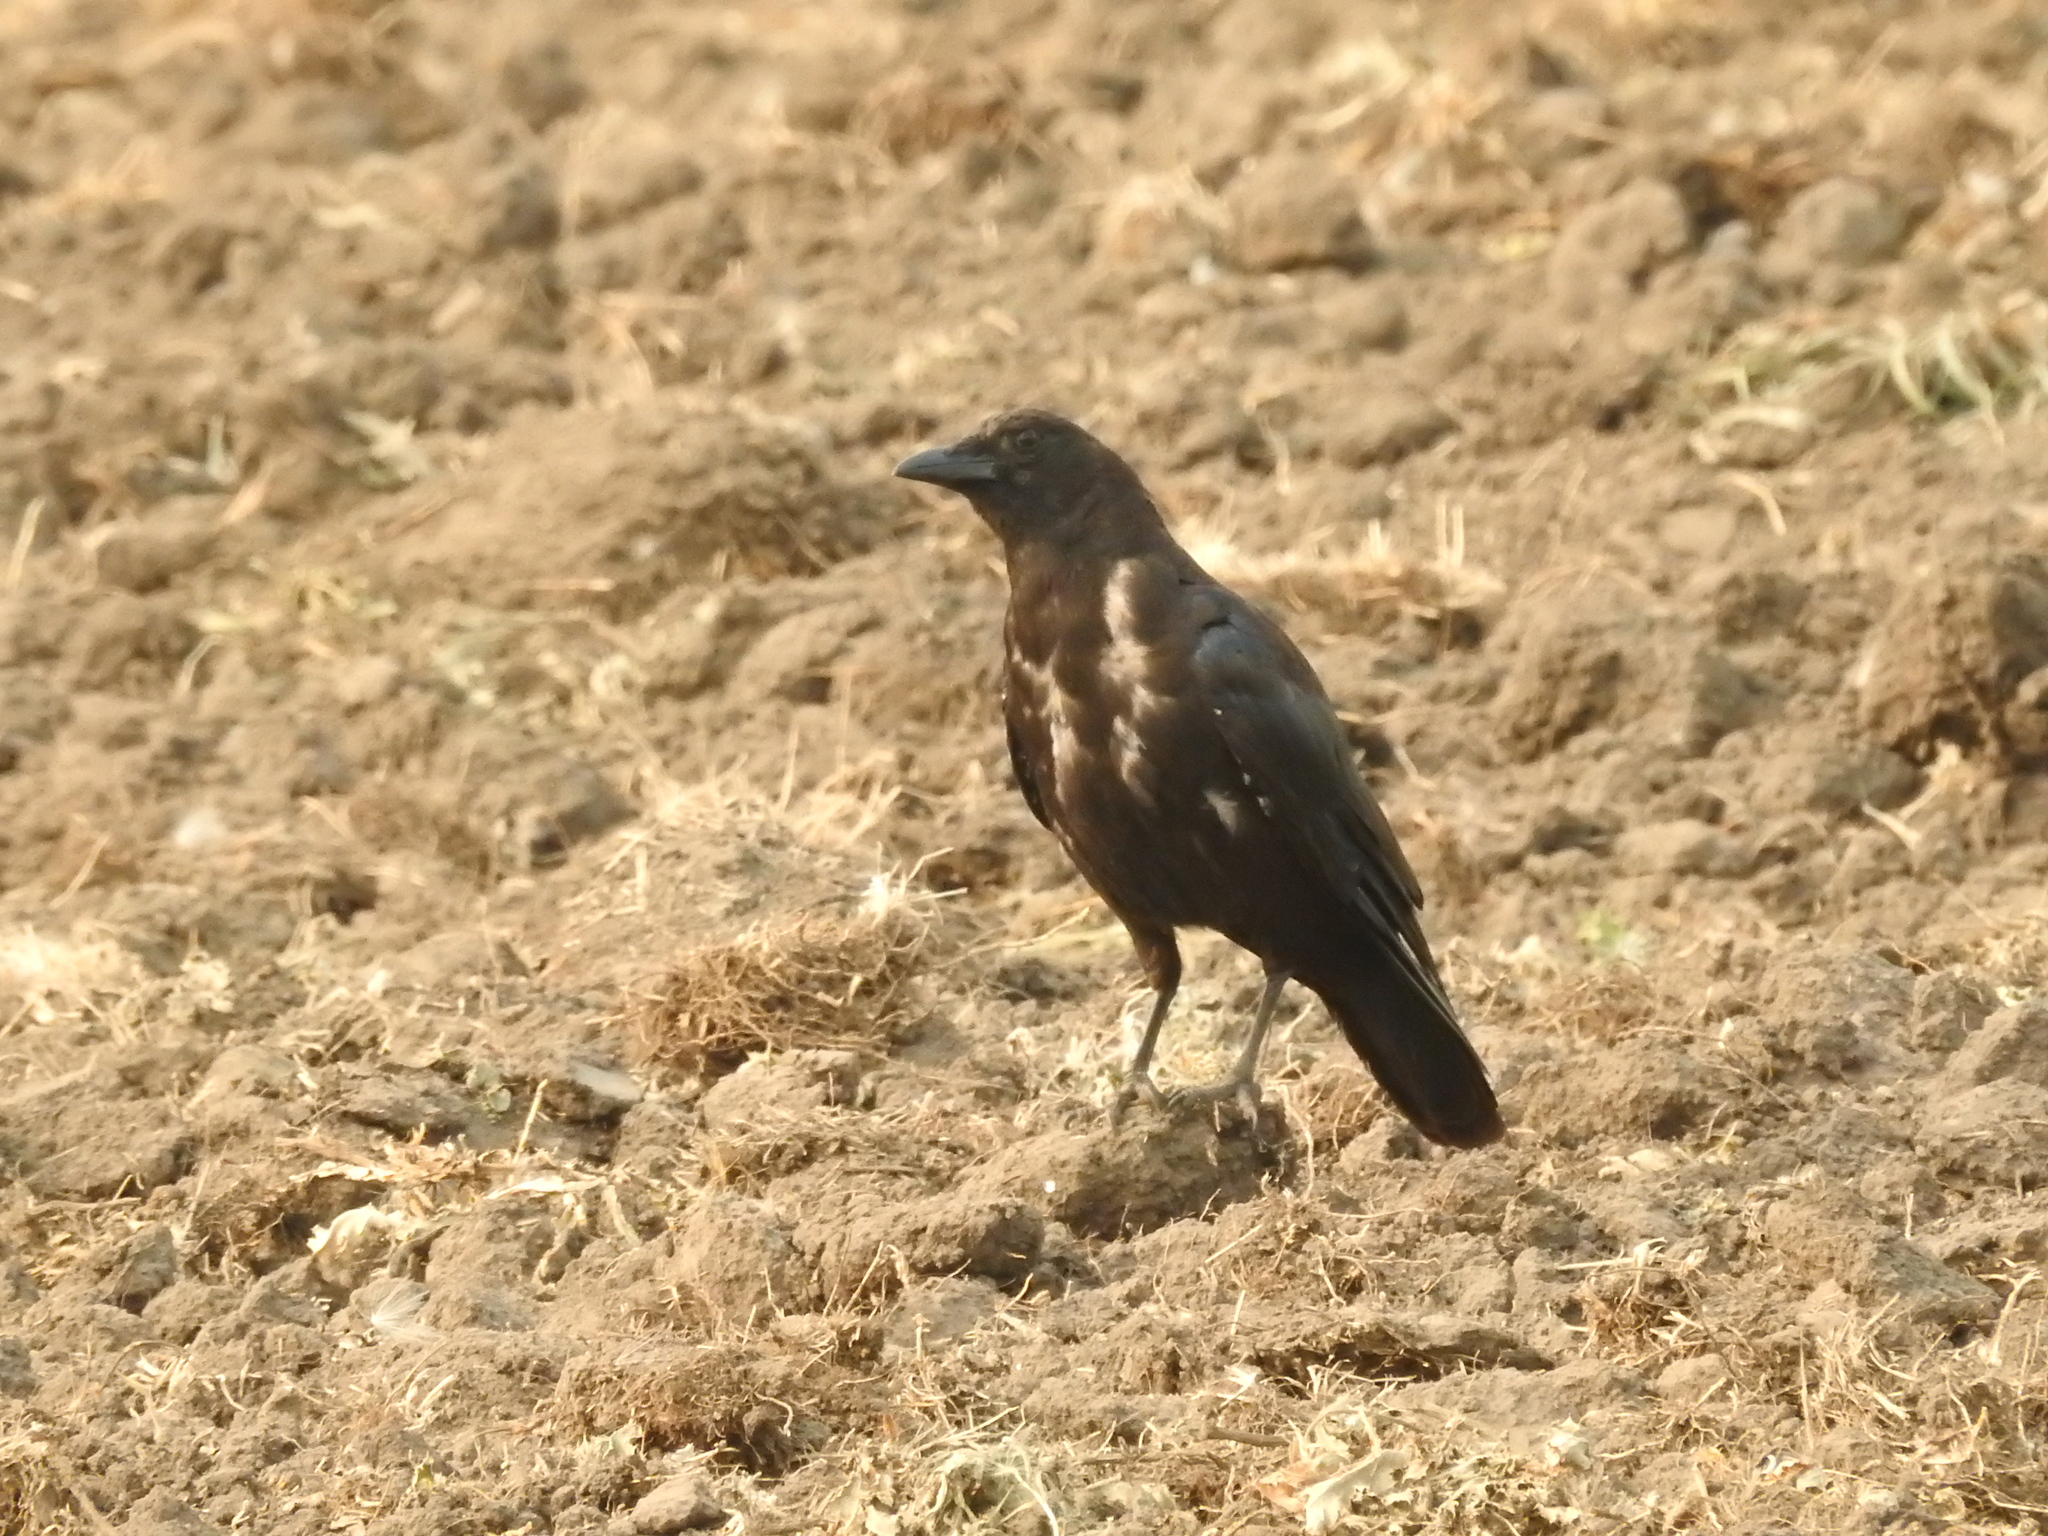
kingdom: Animalia
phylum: Chordata
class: Aves
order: Passeriformes
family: Corvidae
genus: Corvus
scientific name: Corvus brachyrhynchos
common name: American crow
